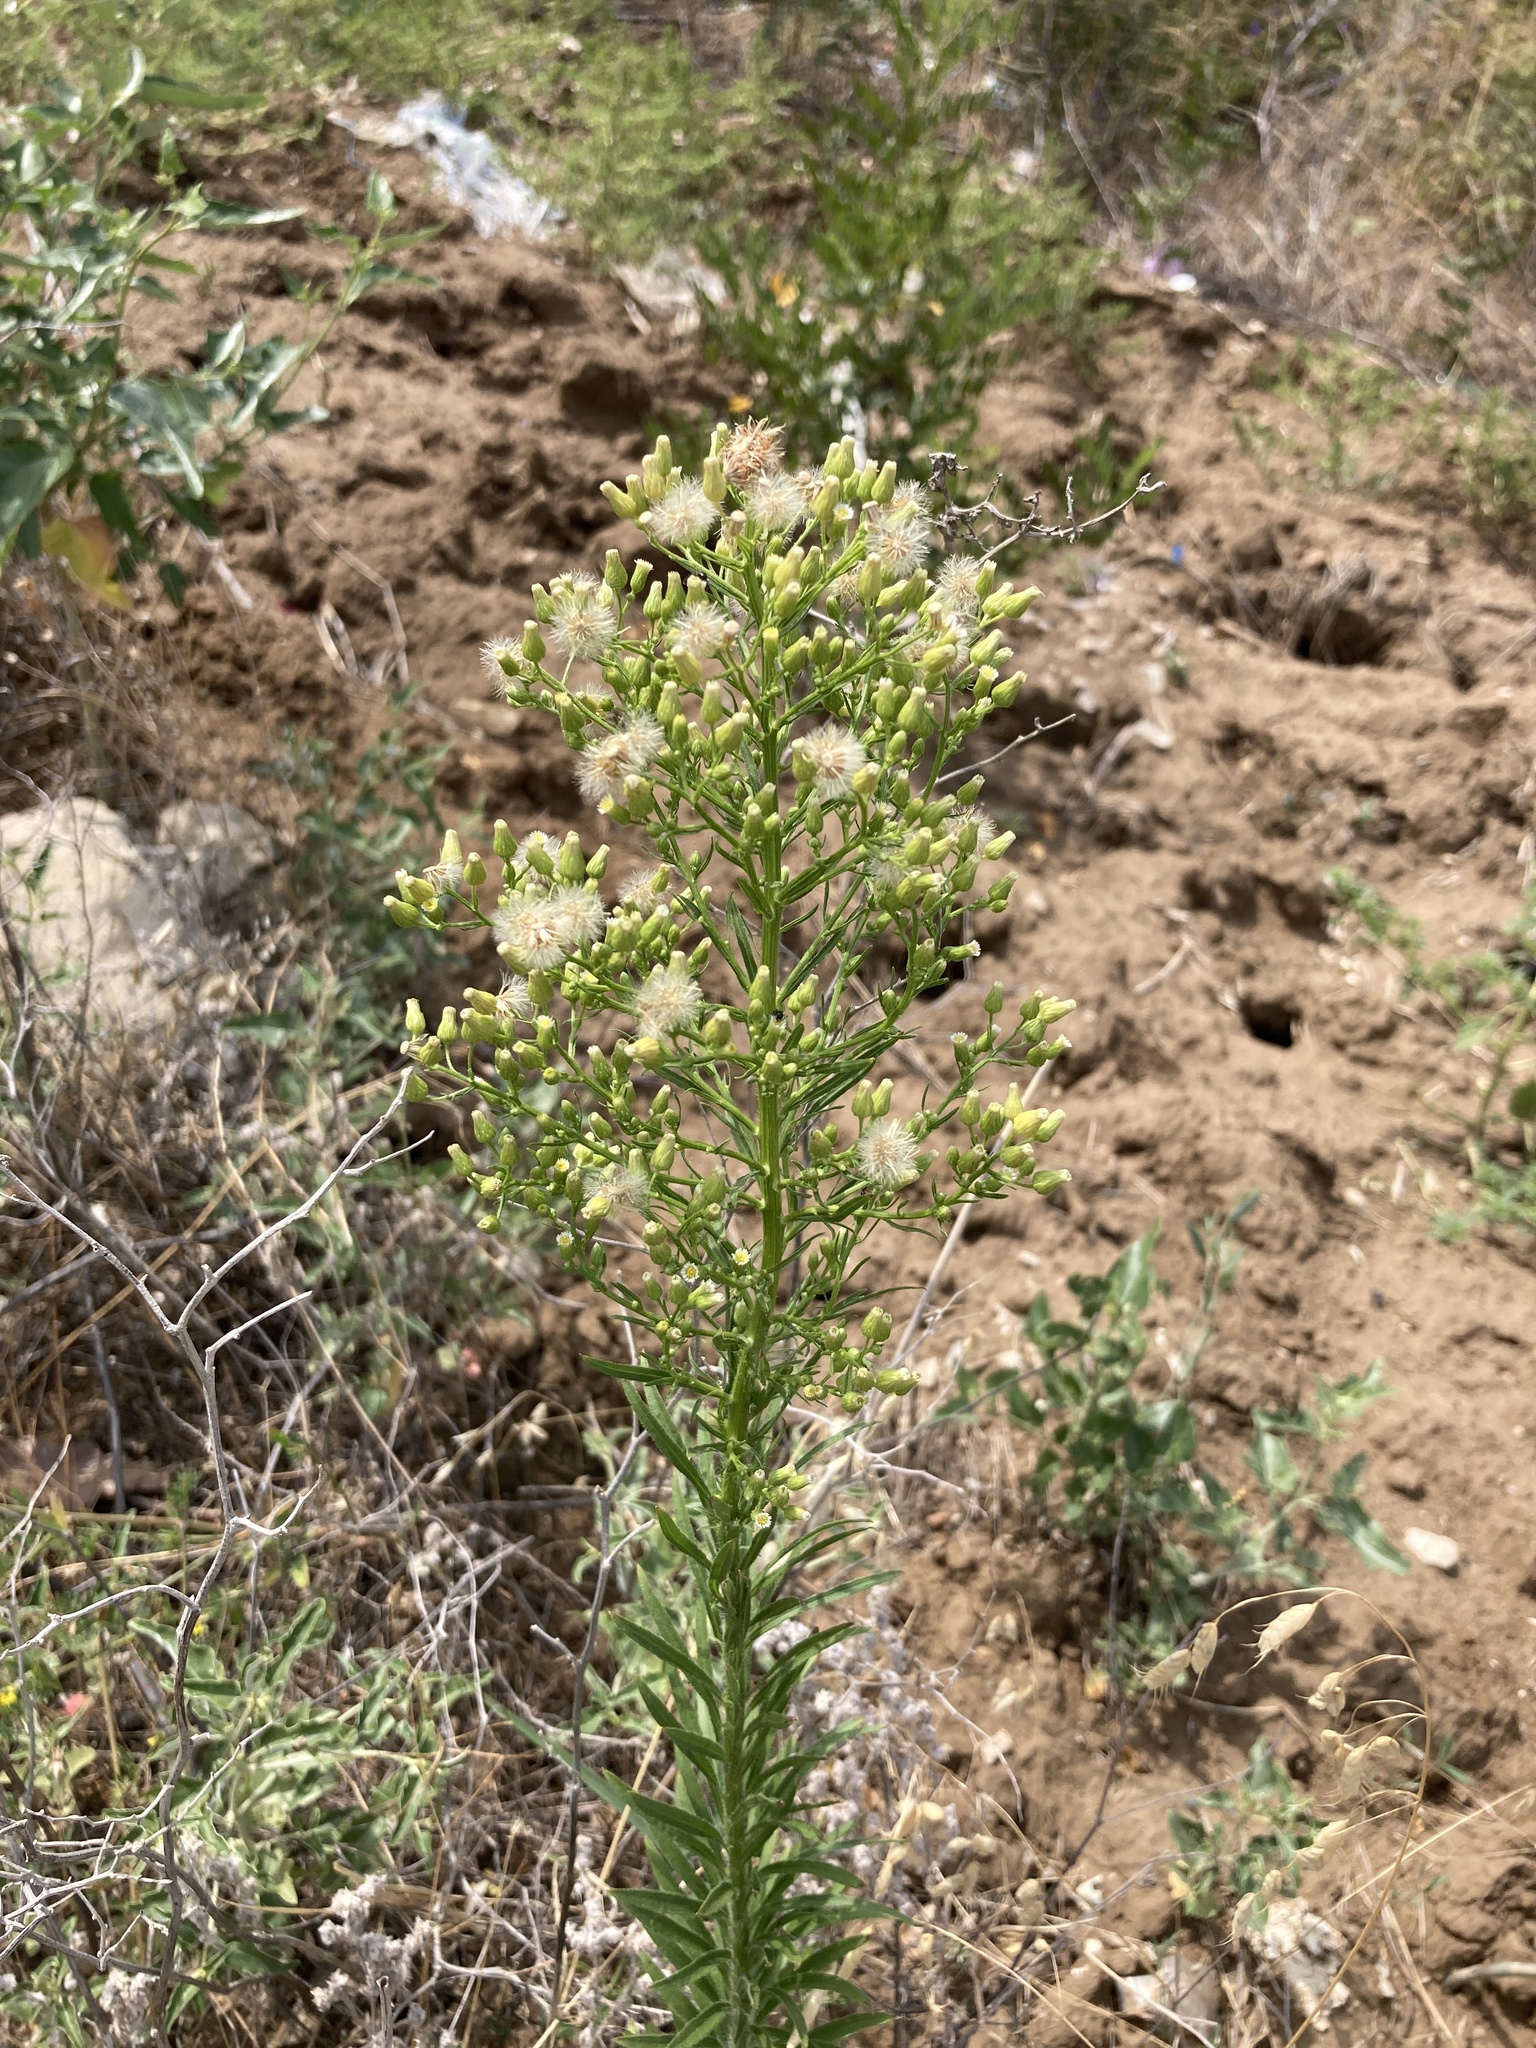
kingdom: Plantae
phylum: Tracheophyta
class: Magnoliopsida
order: Asterales
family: Asteraceae
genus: Erigeron
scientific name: Erigeron canadensis
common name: Canadian fleabane
